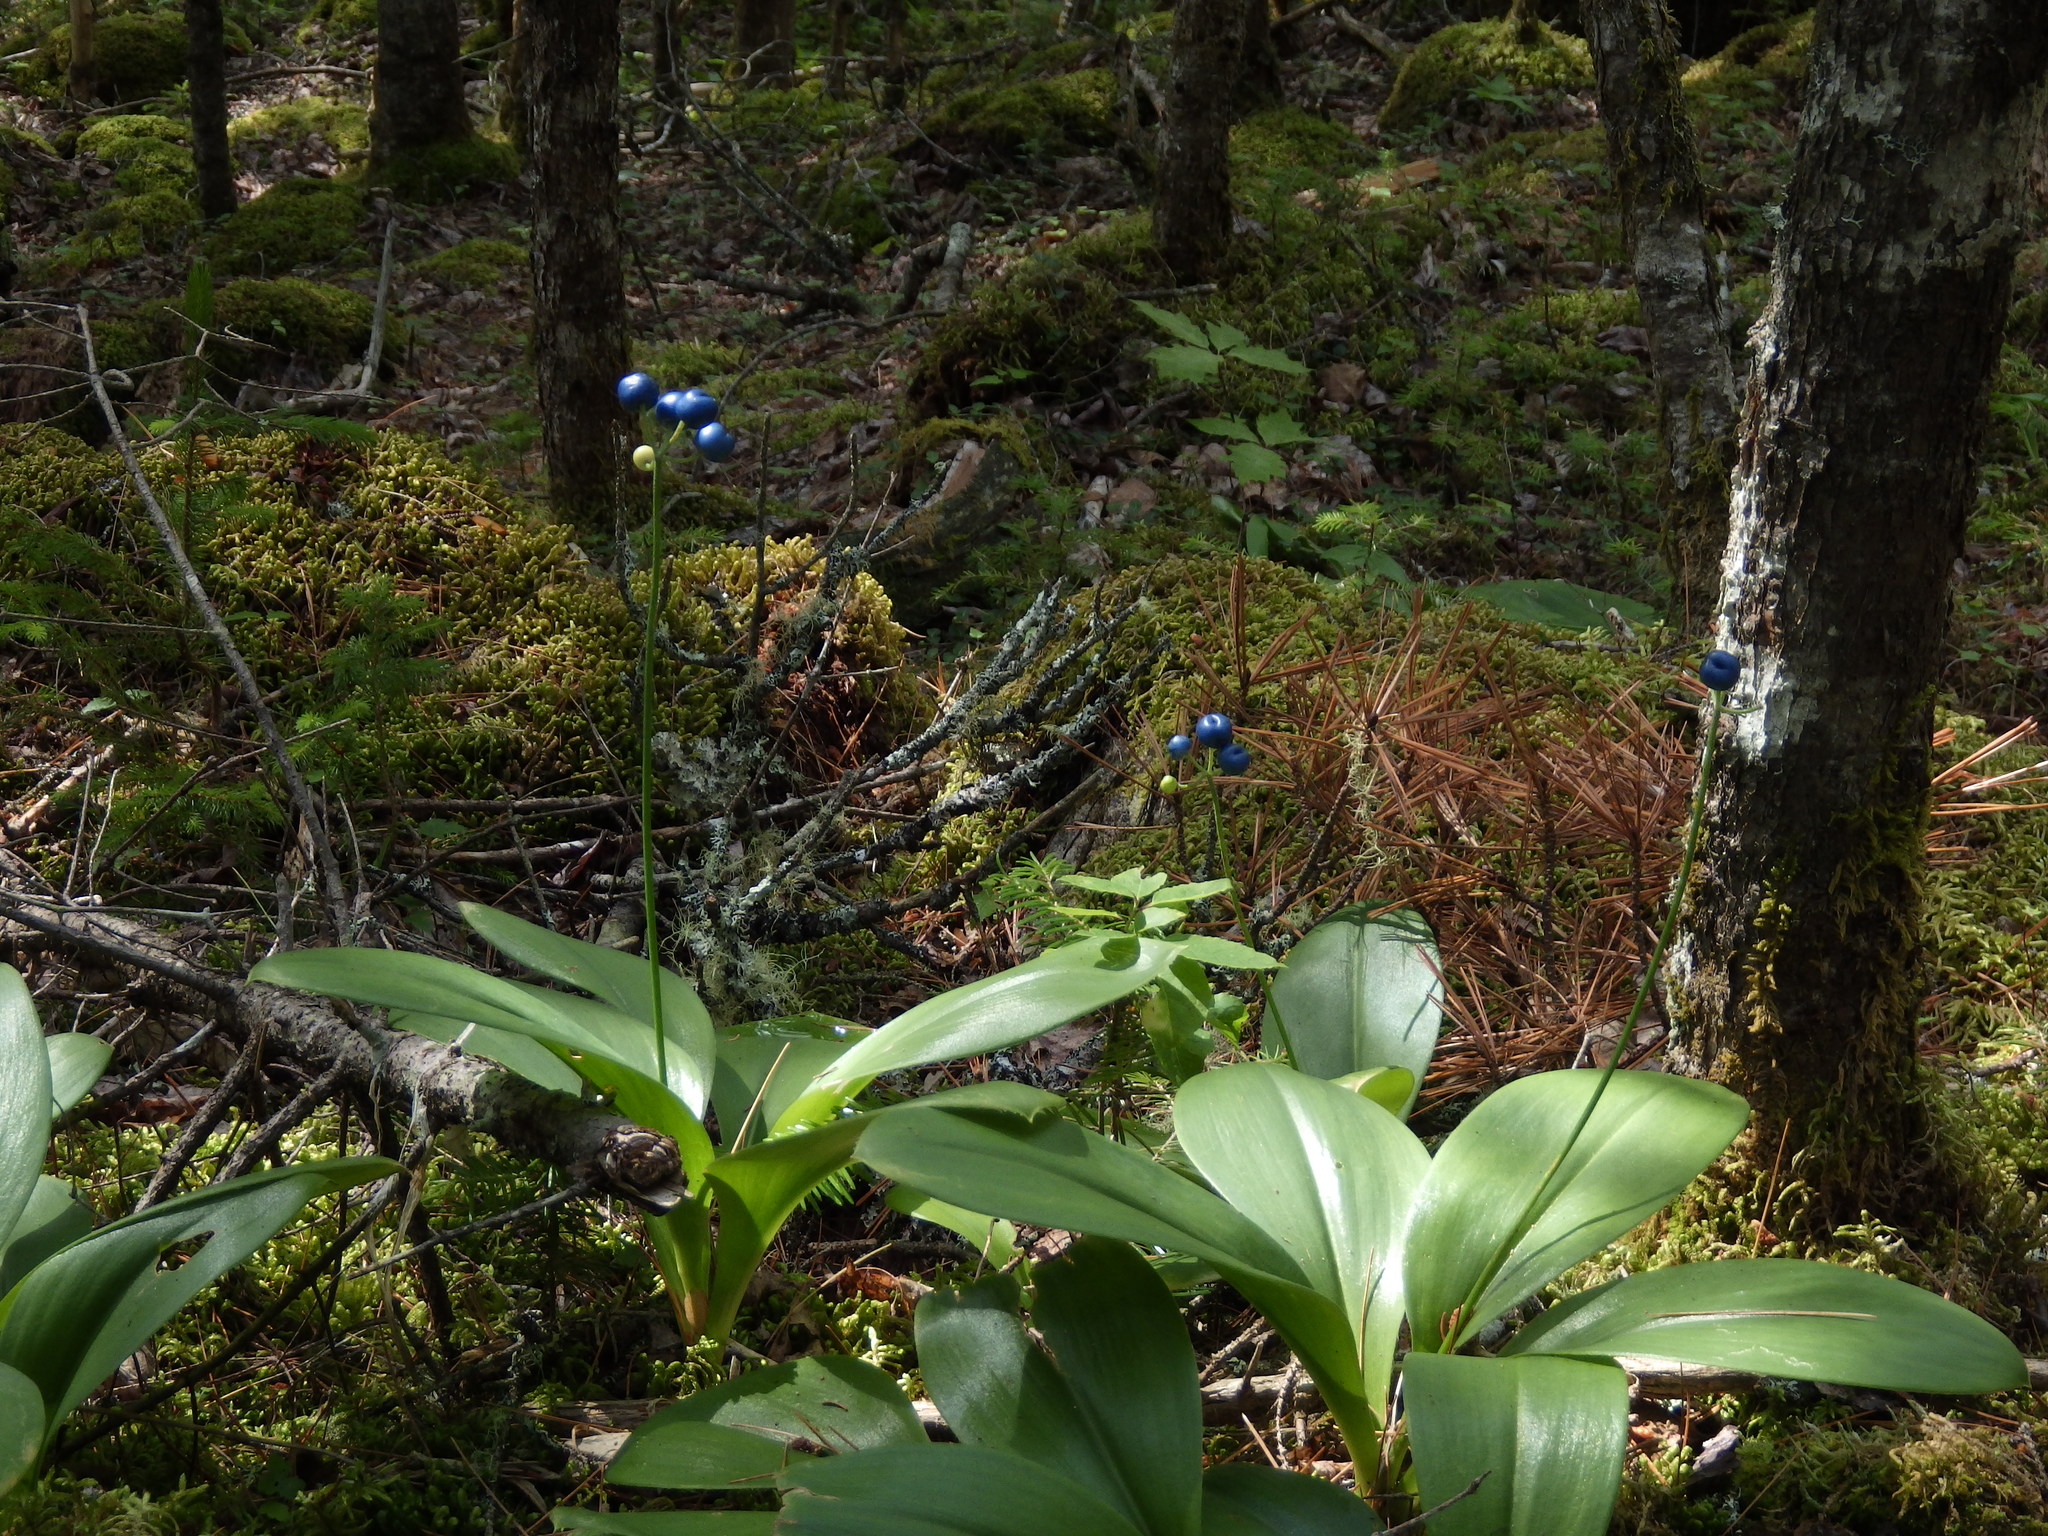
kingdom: Plantae
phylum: Tracheophyta
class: Liliopsida
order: Liliales
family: Liliaceae
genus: Clintonia
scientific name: Clintonia borealis
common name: Yellow clintonia
